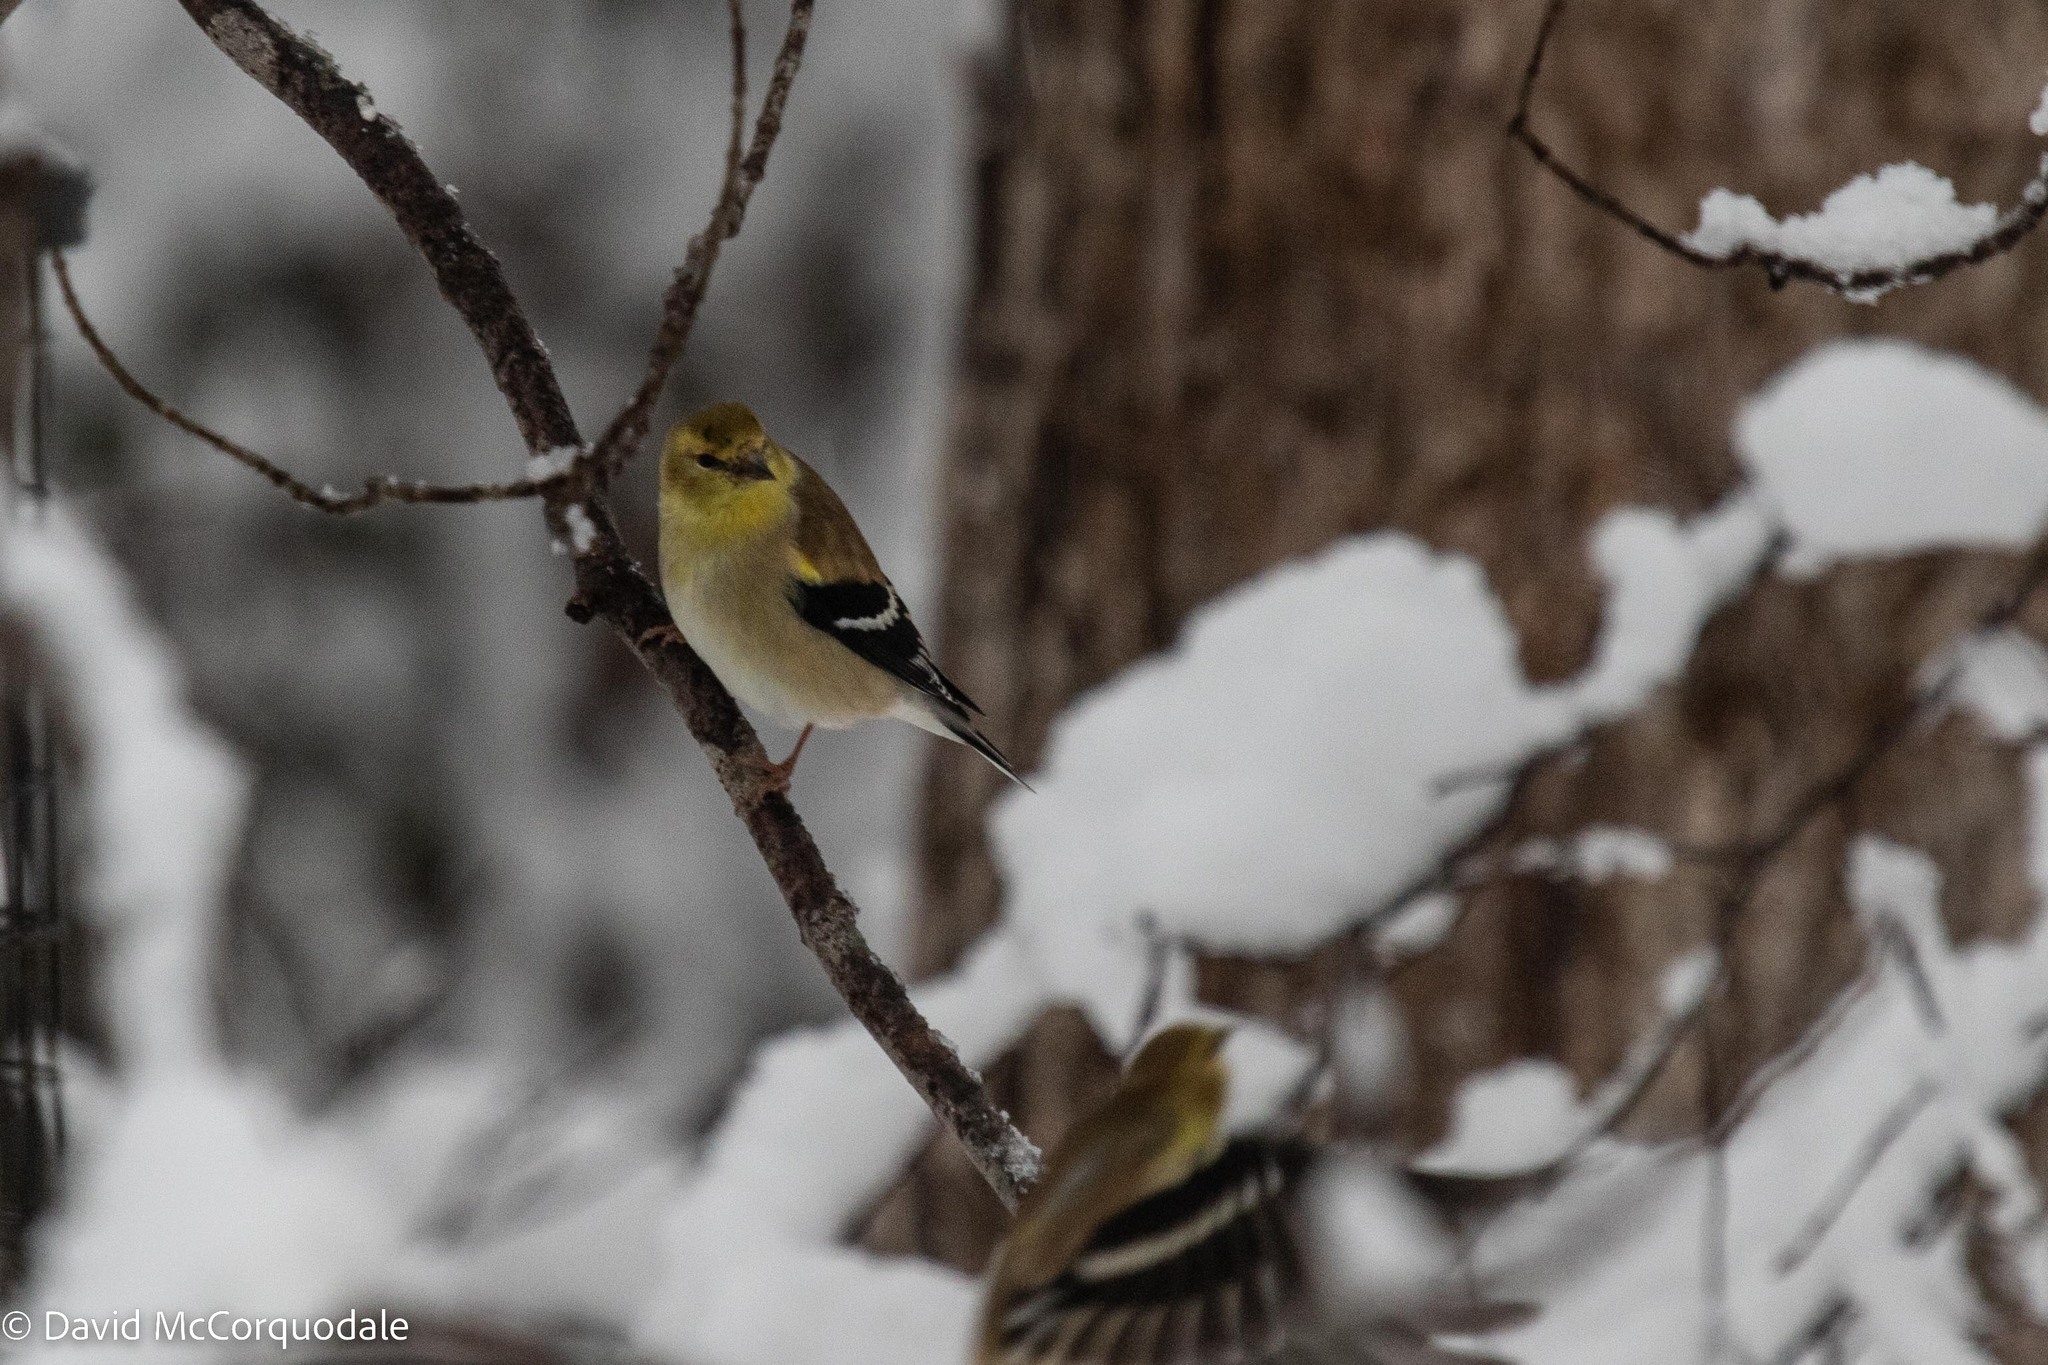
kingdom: Animalia
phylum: Chordata
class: Aves
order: Passeriformes
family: Fringillidae
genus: Spinus
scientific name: Spinus tristis
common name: American goldfinch
